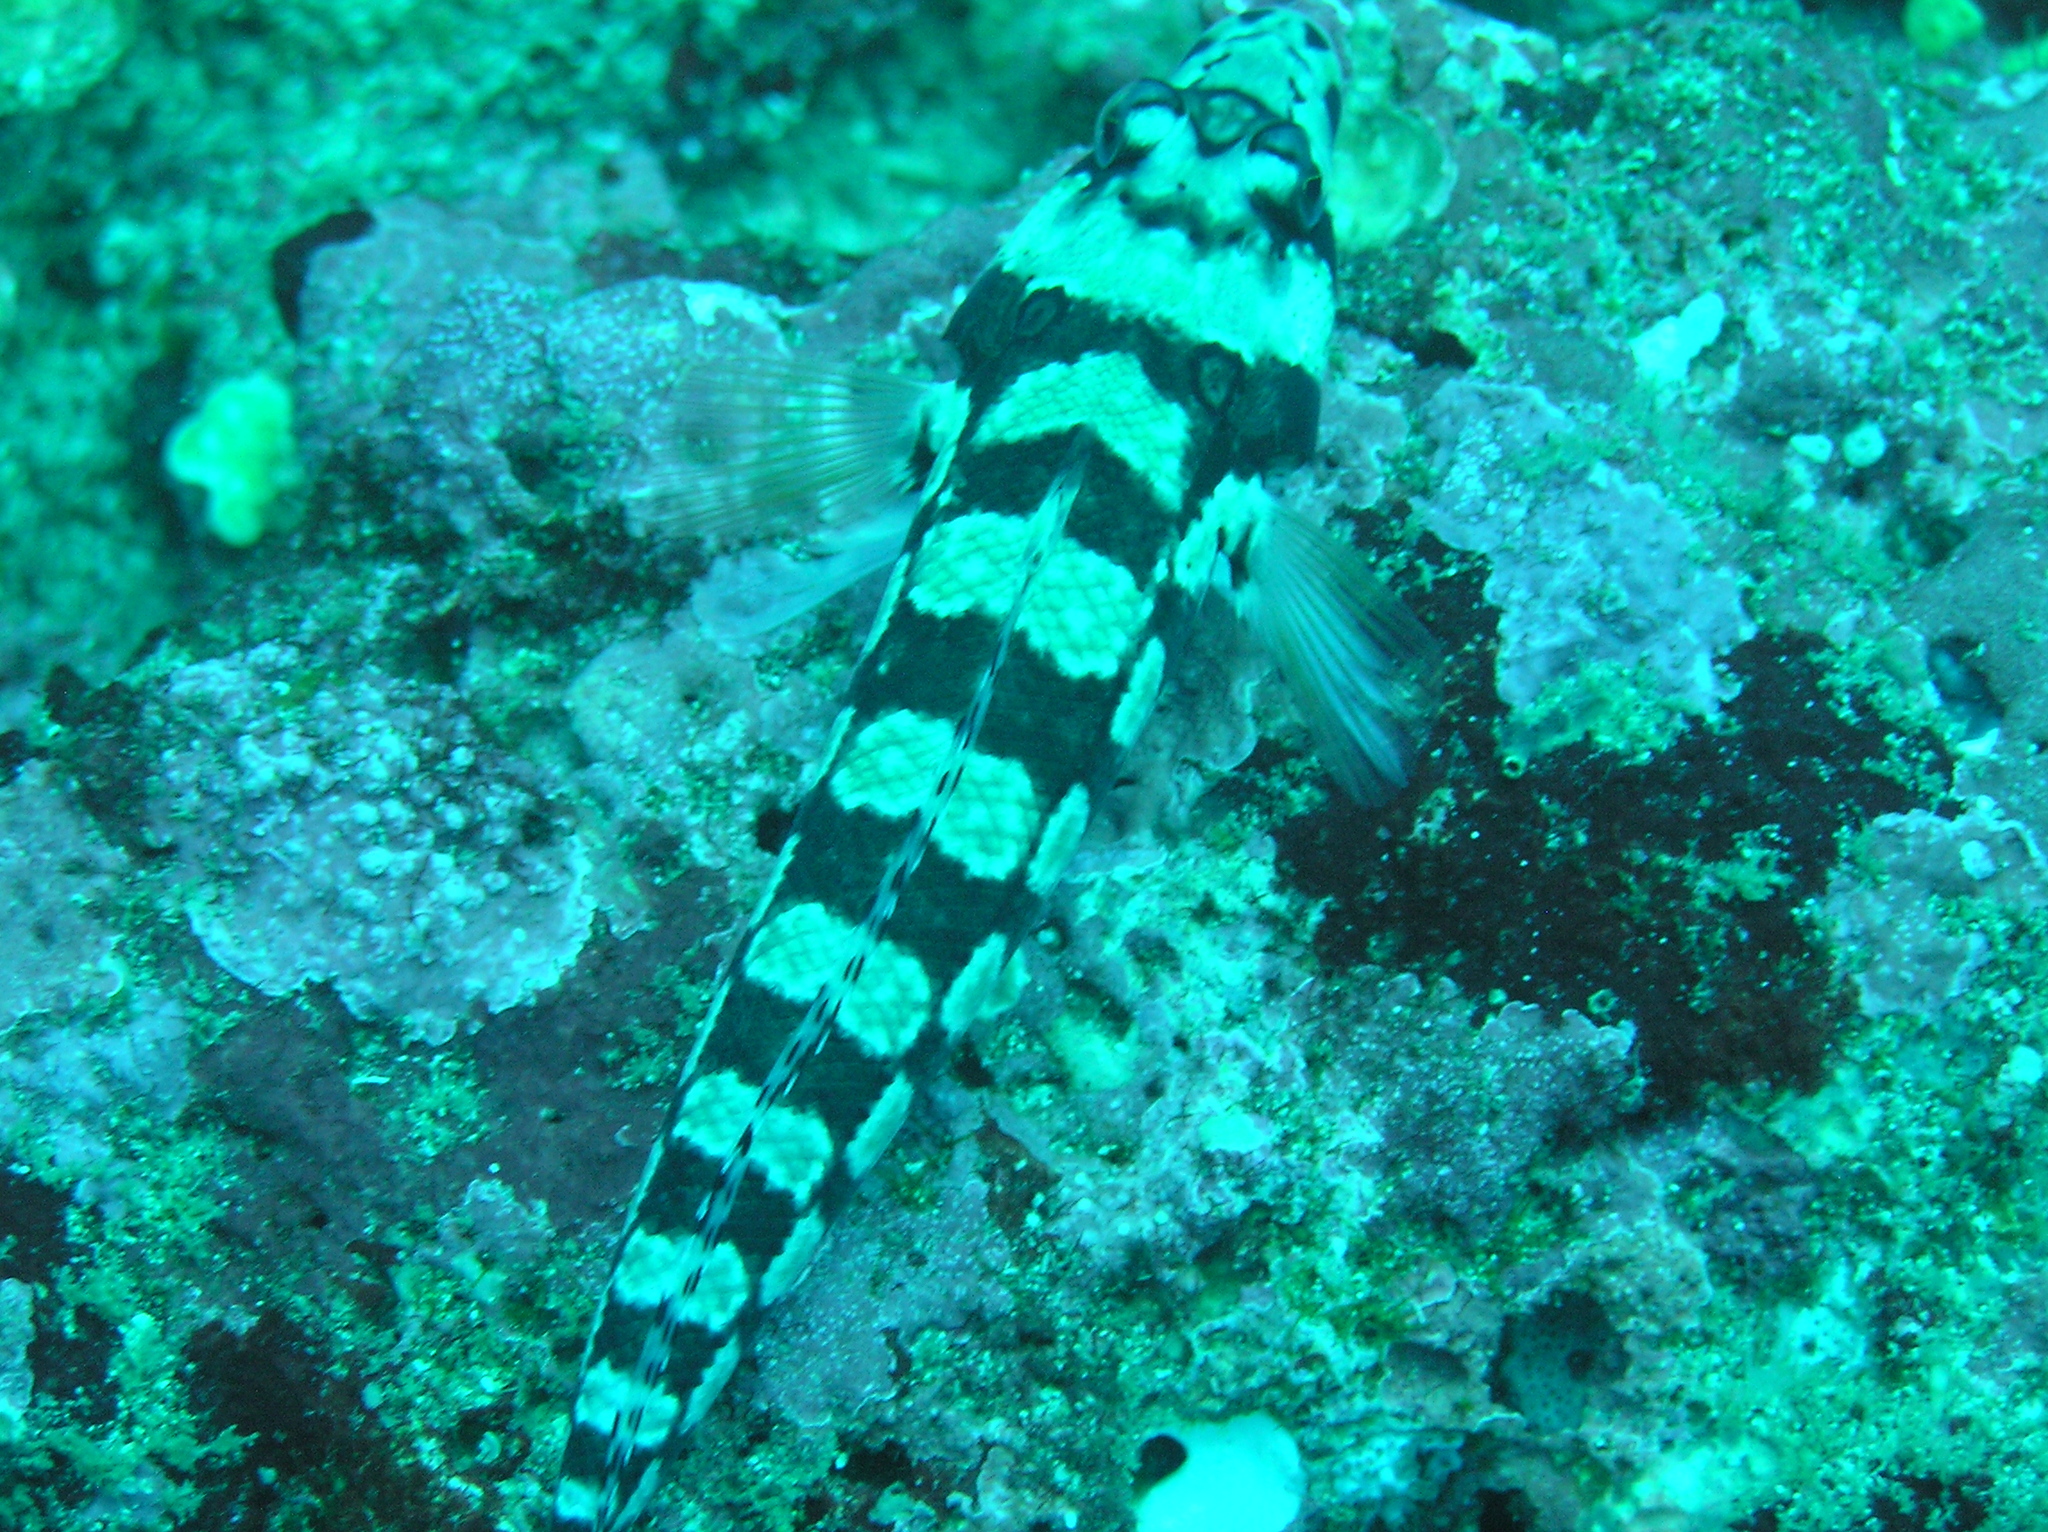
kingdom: Animalia
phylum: Chordata
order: Perciformes
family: Pinguipedidae
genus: Parapercis
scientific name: Parapercis tetracantha
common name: Black-banded grubfish
